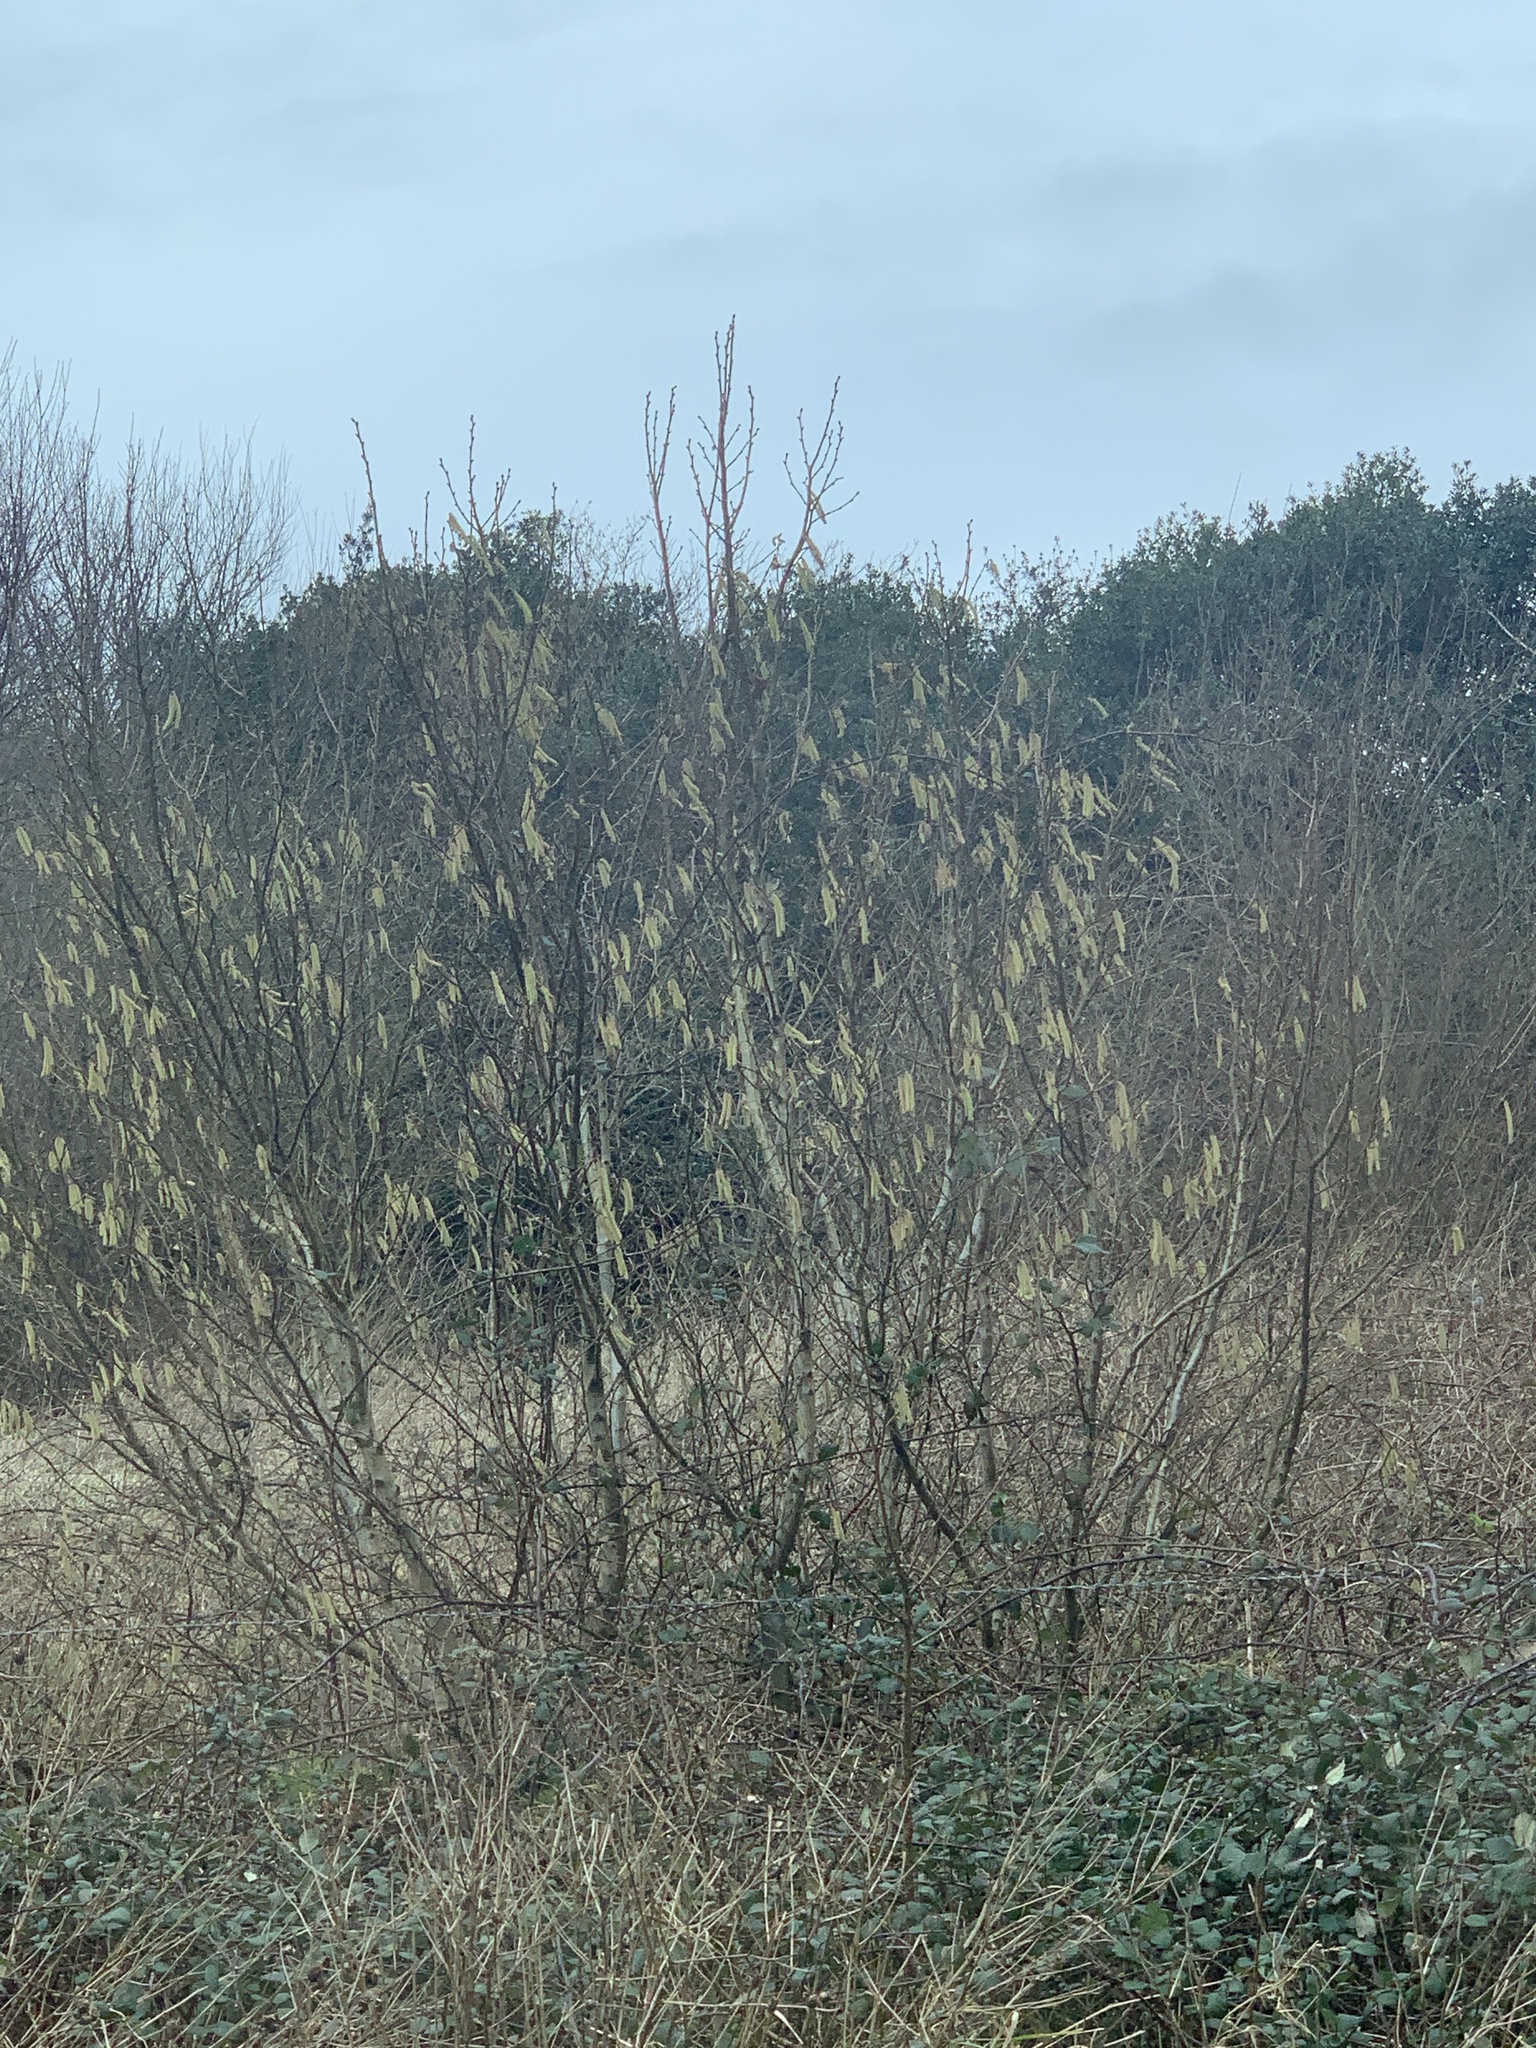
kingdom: Plantae
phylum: Tracheophyta
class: Magnoliopsida
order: Fagales
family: Betulaceae
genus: Corylus
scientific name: Corylus avellana
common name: European hazel
